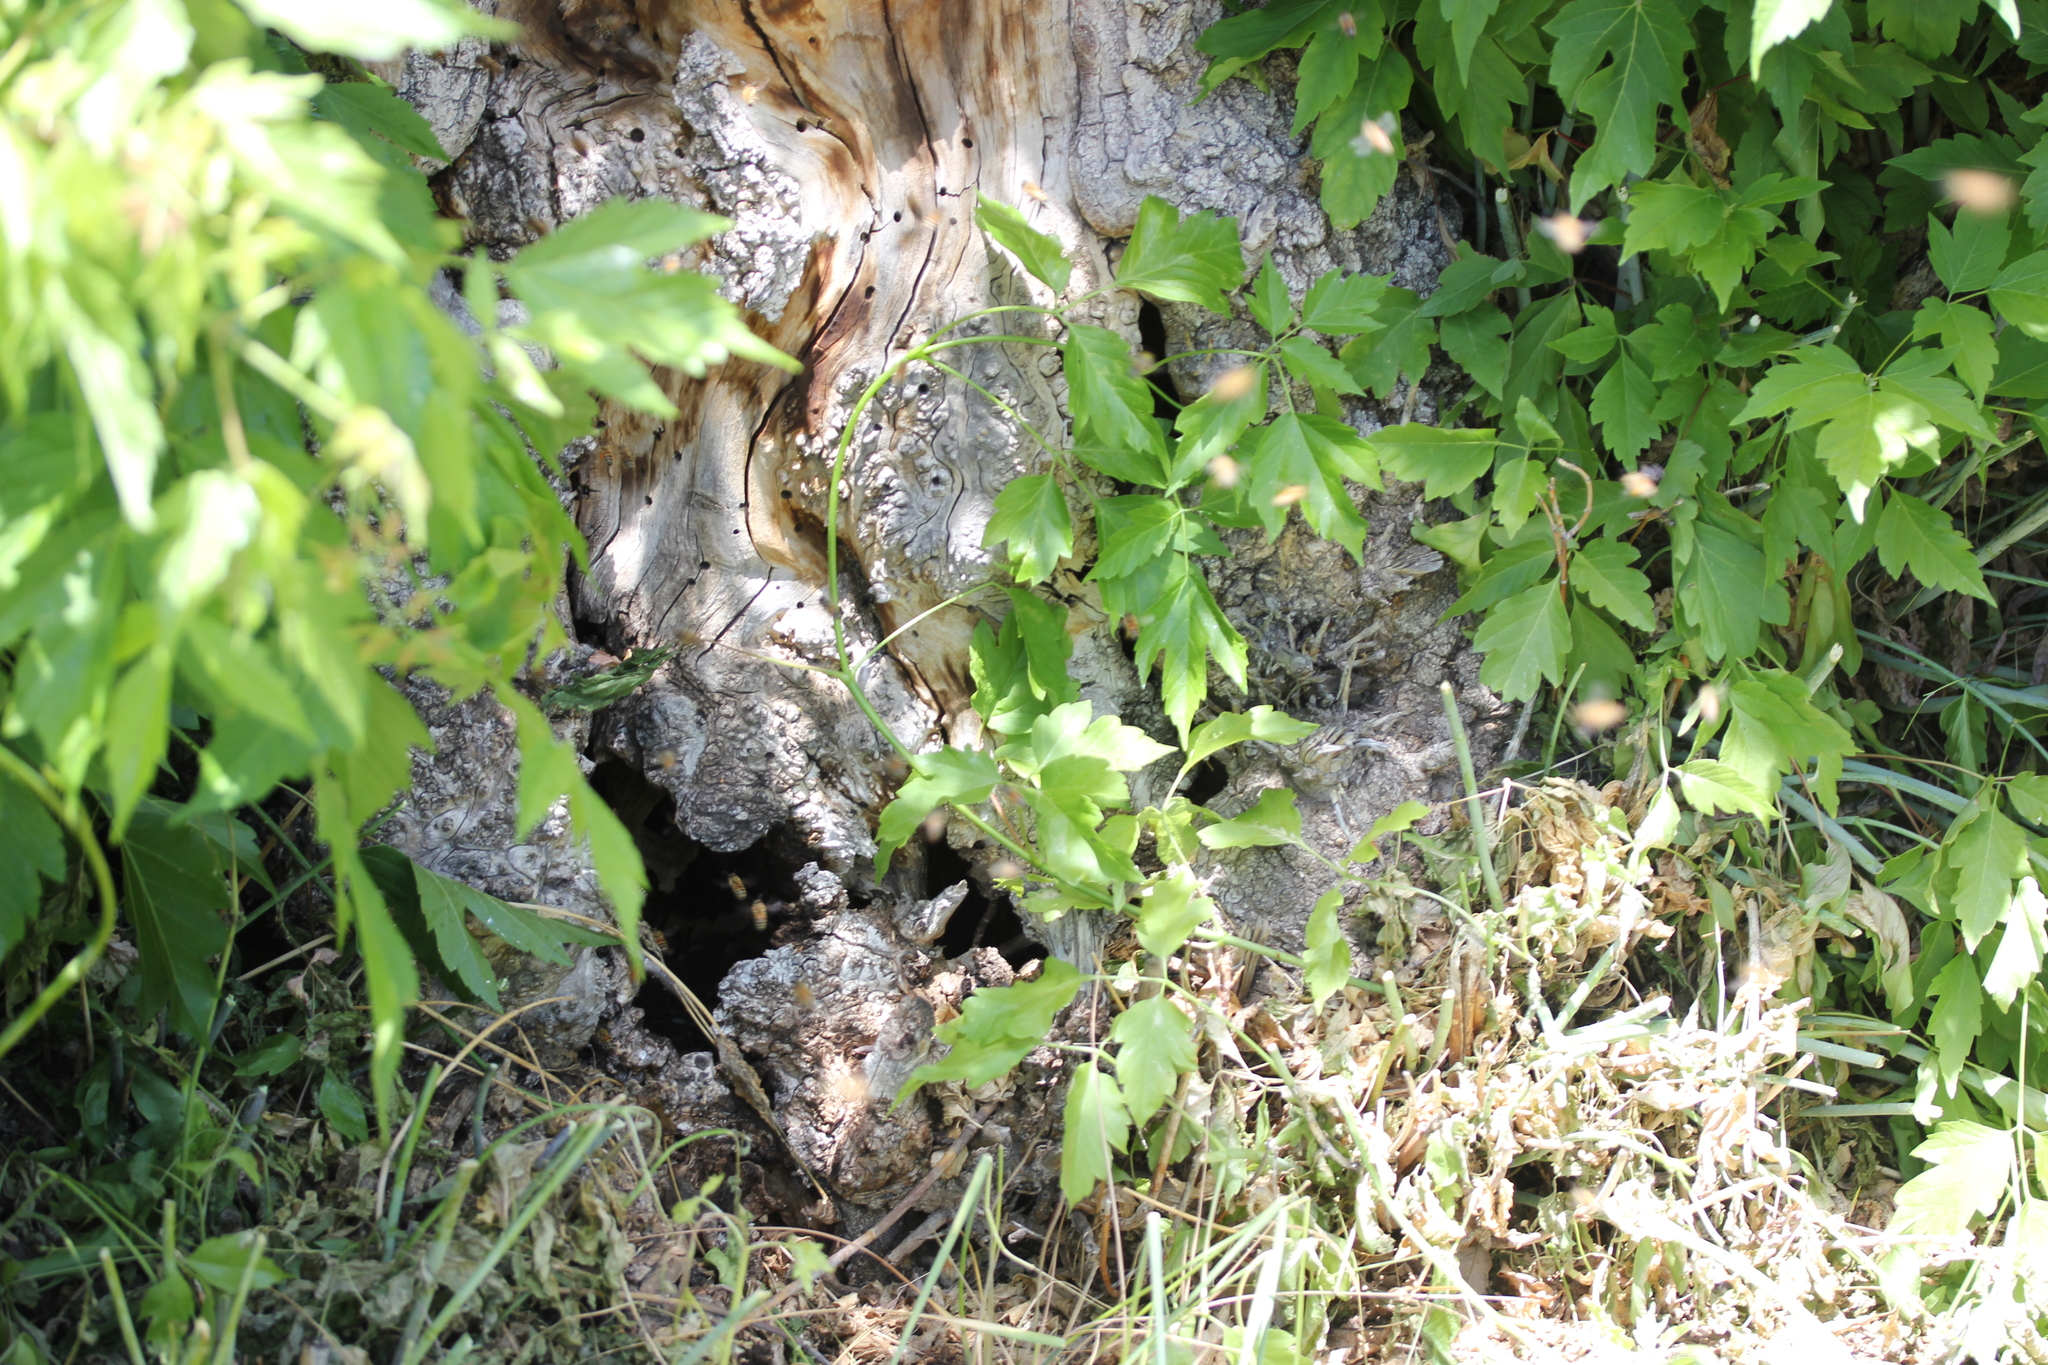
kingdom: Animalia
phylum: Arthropoda
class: Insecta
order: Hymenoptera
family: Apidae
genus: Apis
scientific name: Apis mellifera
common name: Honey bee
